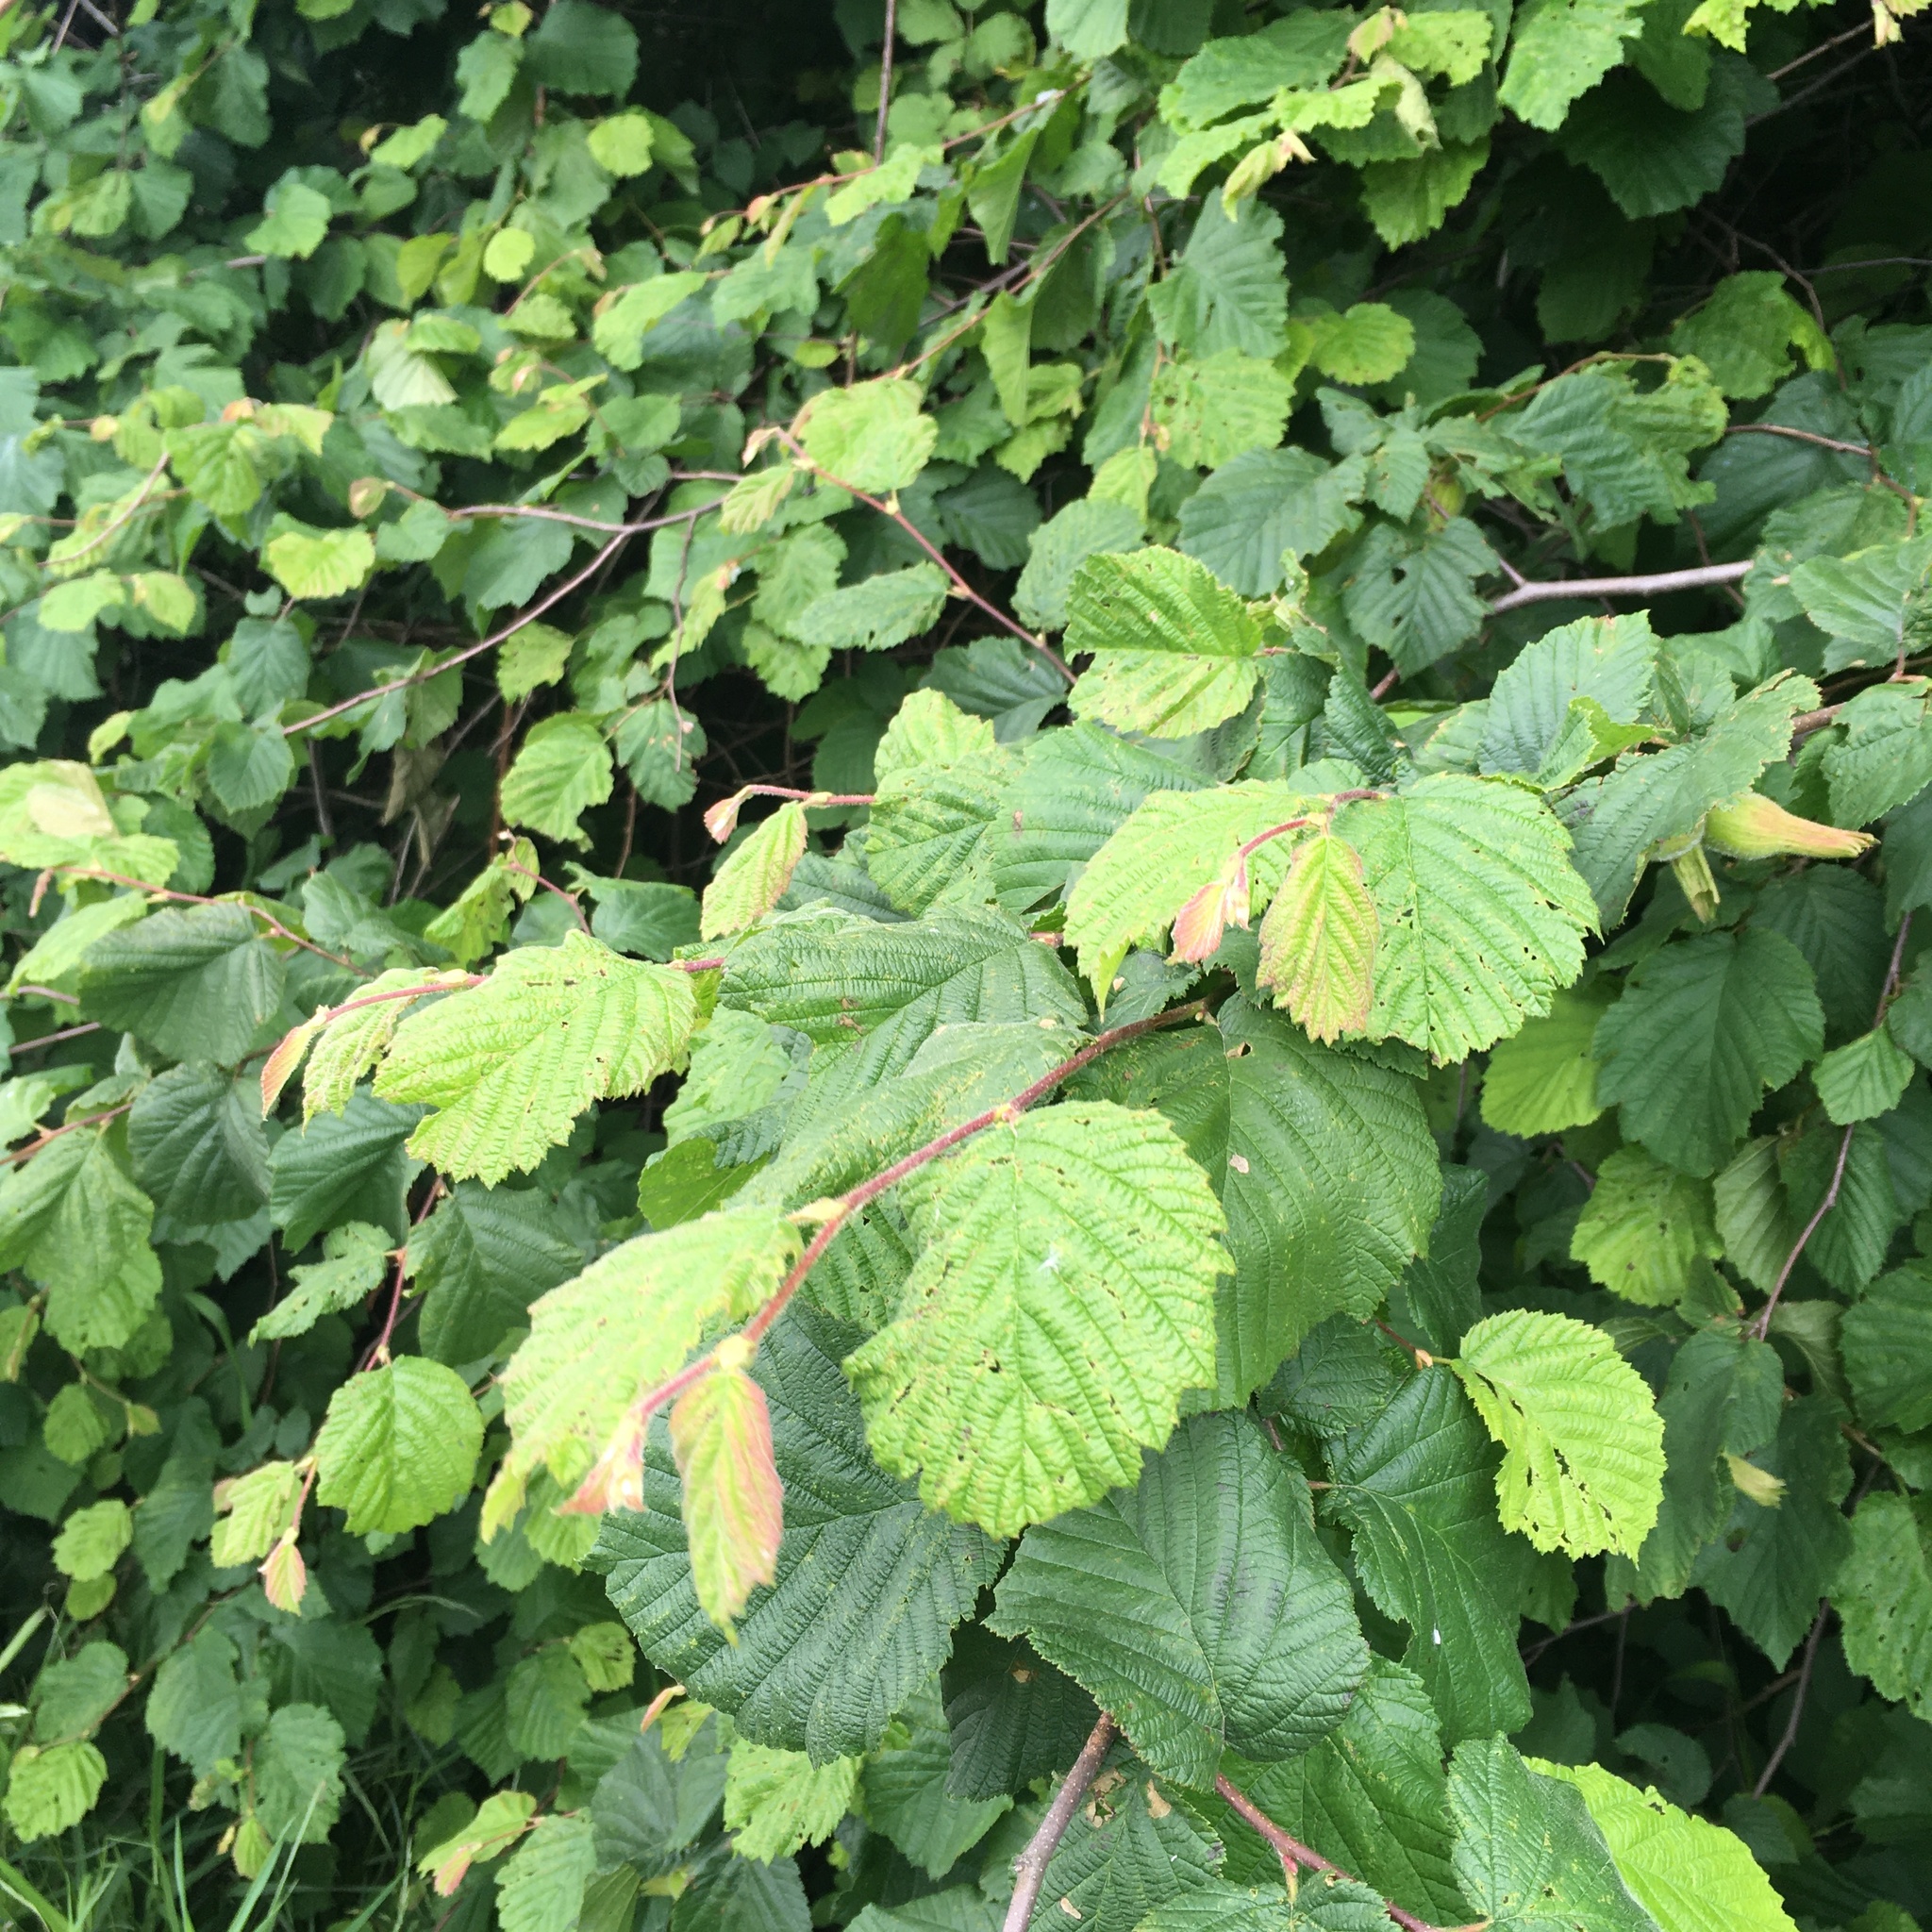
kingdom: Plantae
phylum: Tracheophyta
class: Magnoliopsida
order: Fagales
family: Betulaceae
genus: Corylus
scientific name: Corylus cornuta
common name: Beaked hazel
